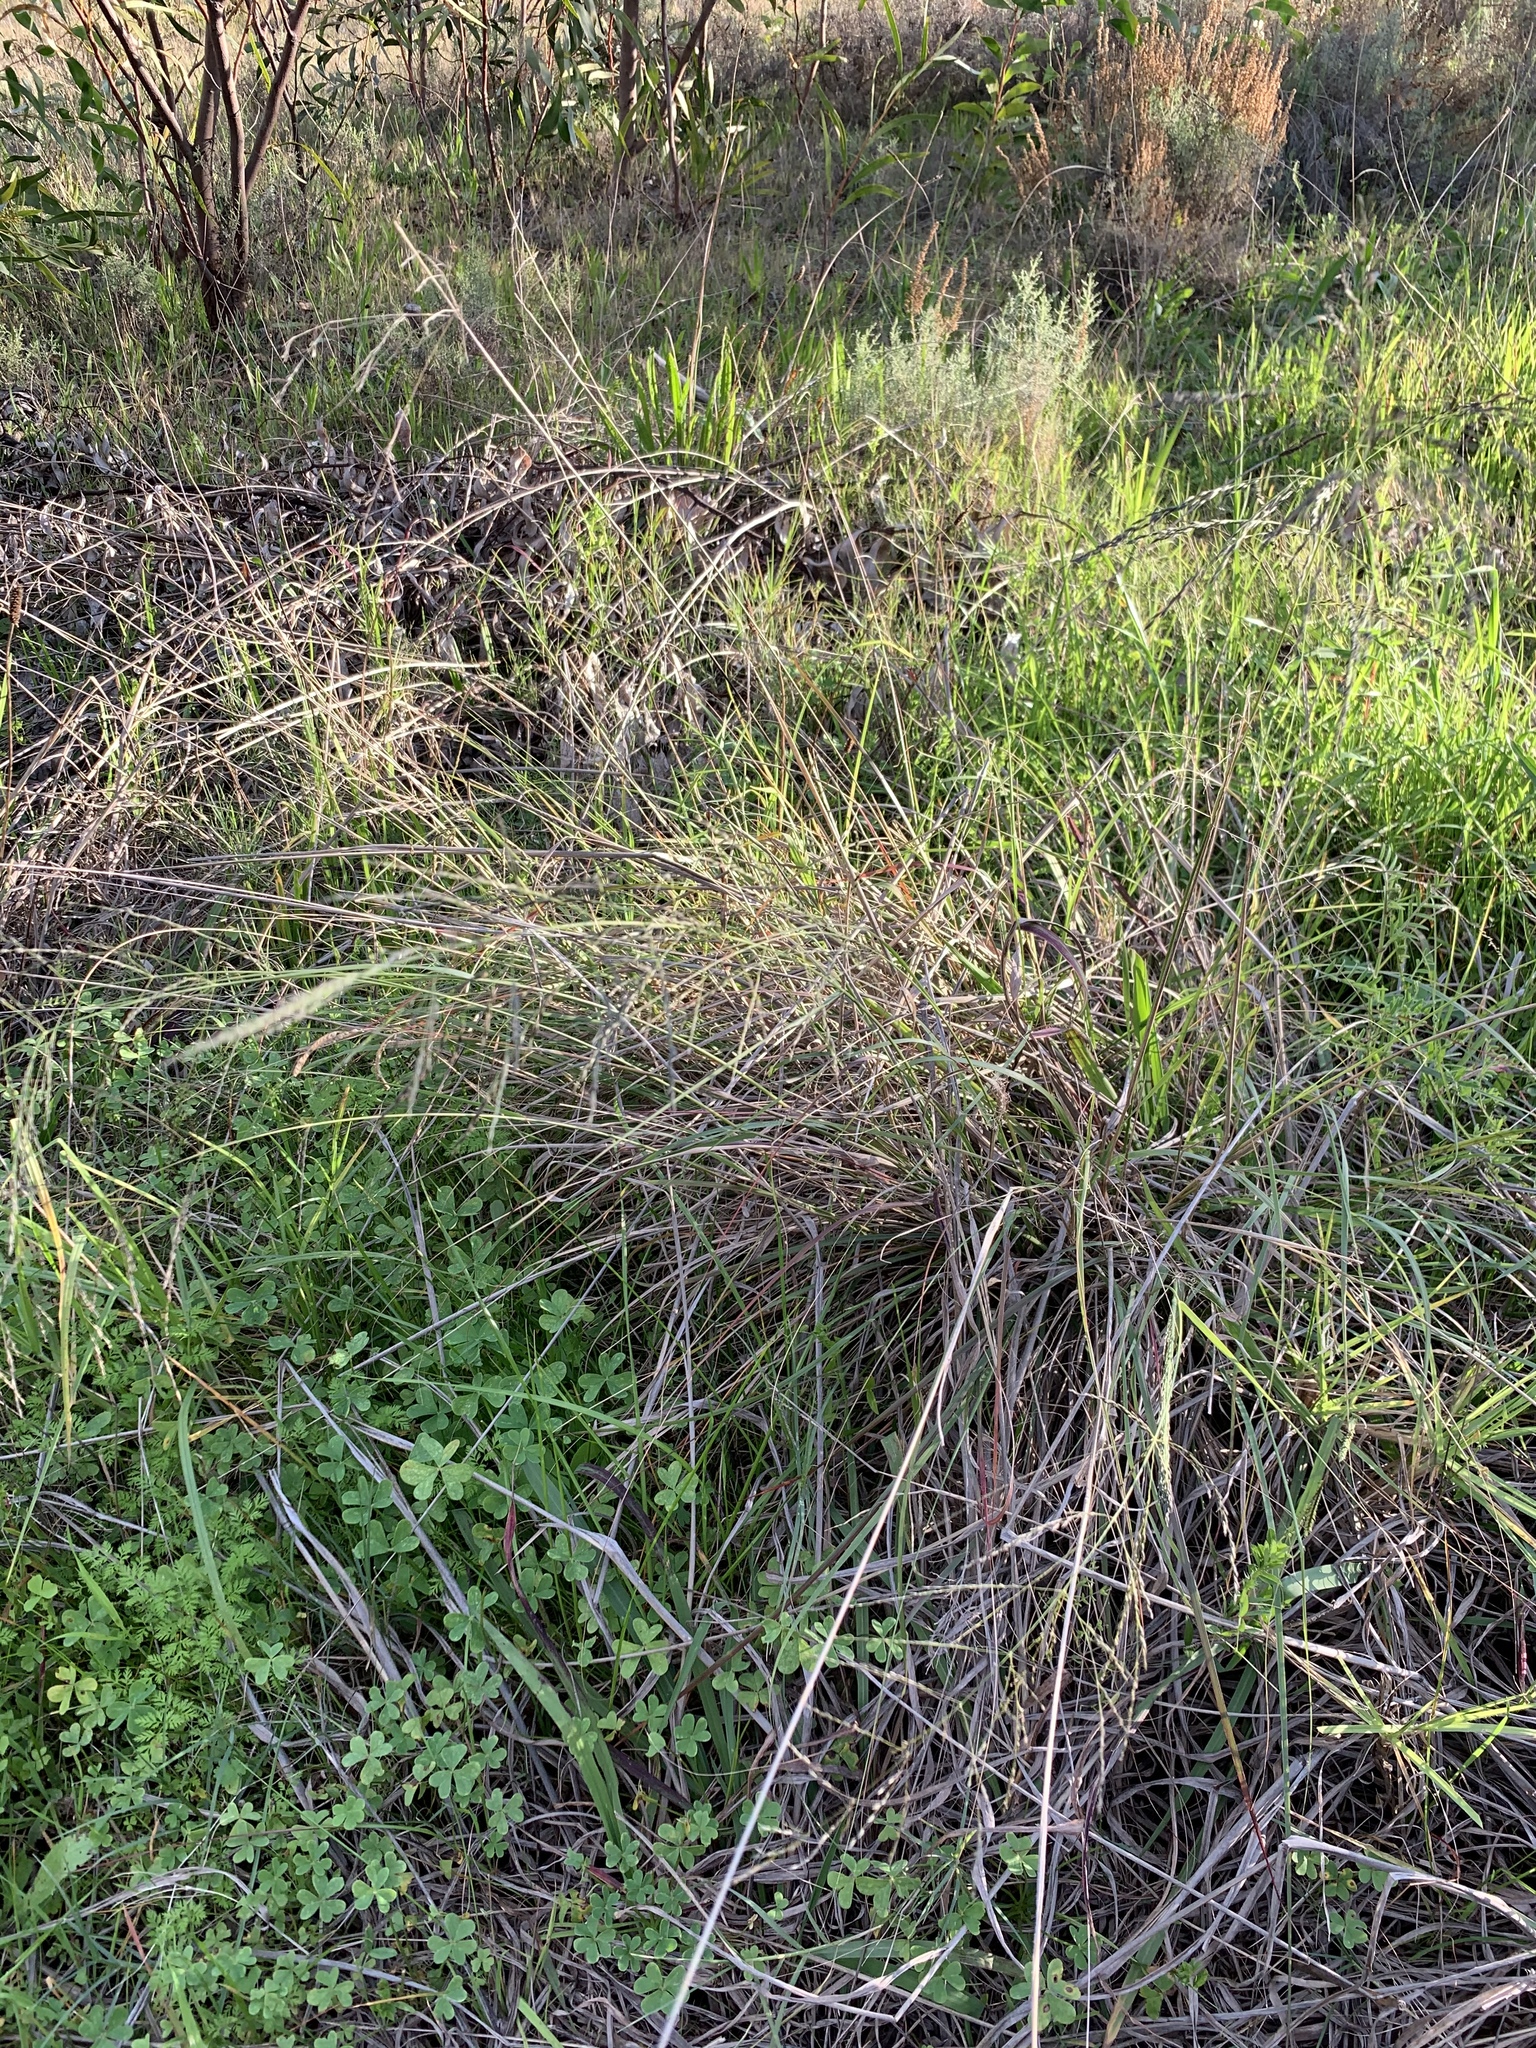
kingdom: Plantae
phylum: Tracheophyta
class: Liliopsida
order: Poales
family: Poaceae
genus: Eragrostis
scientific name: Eragrostis curvula
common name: African love-grass
